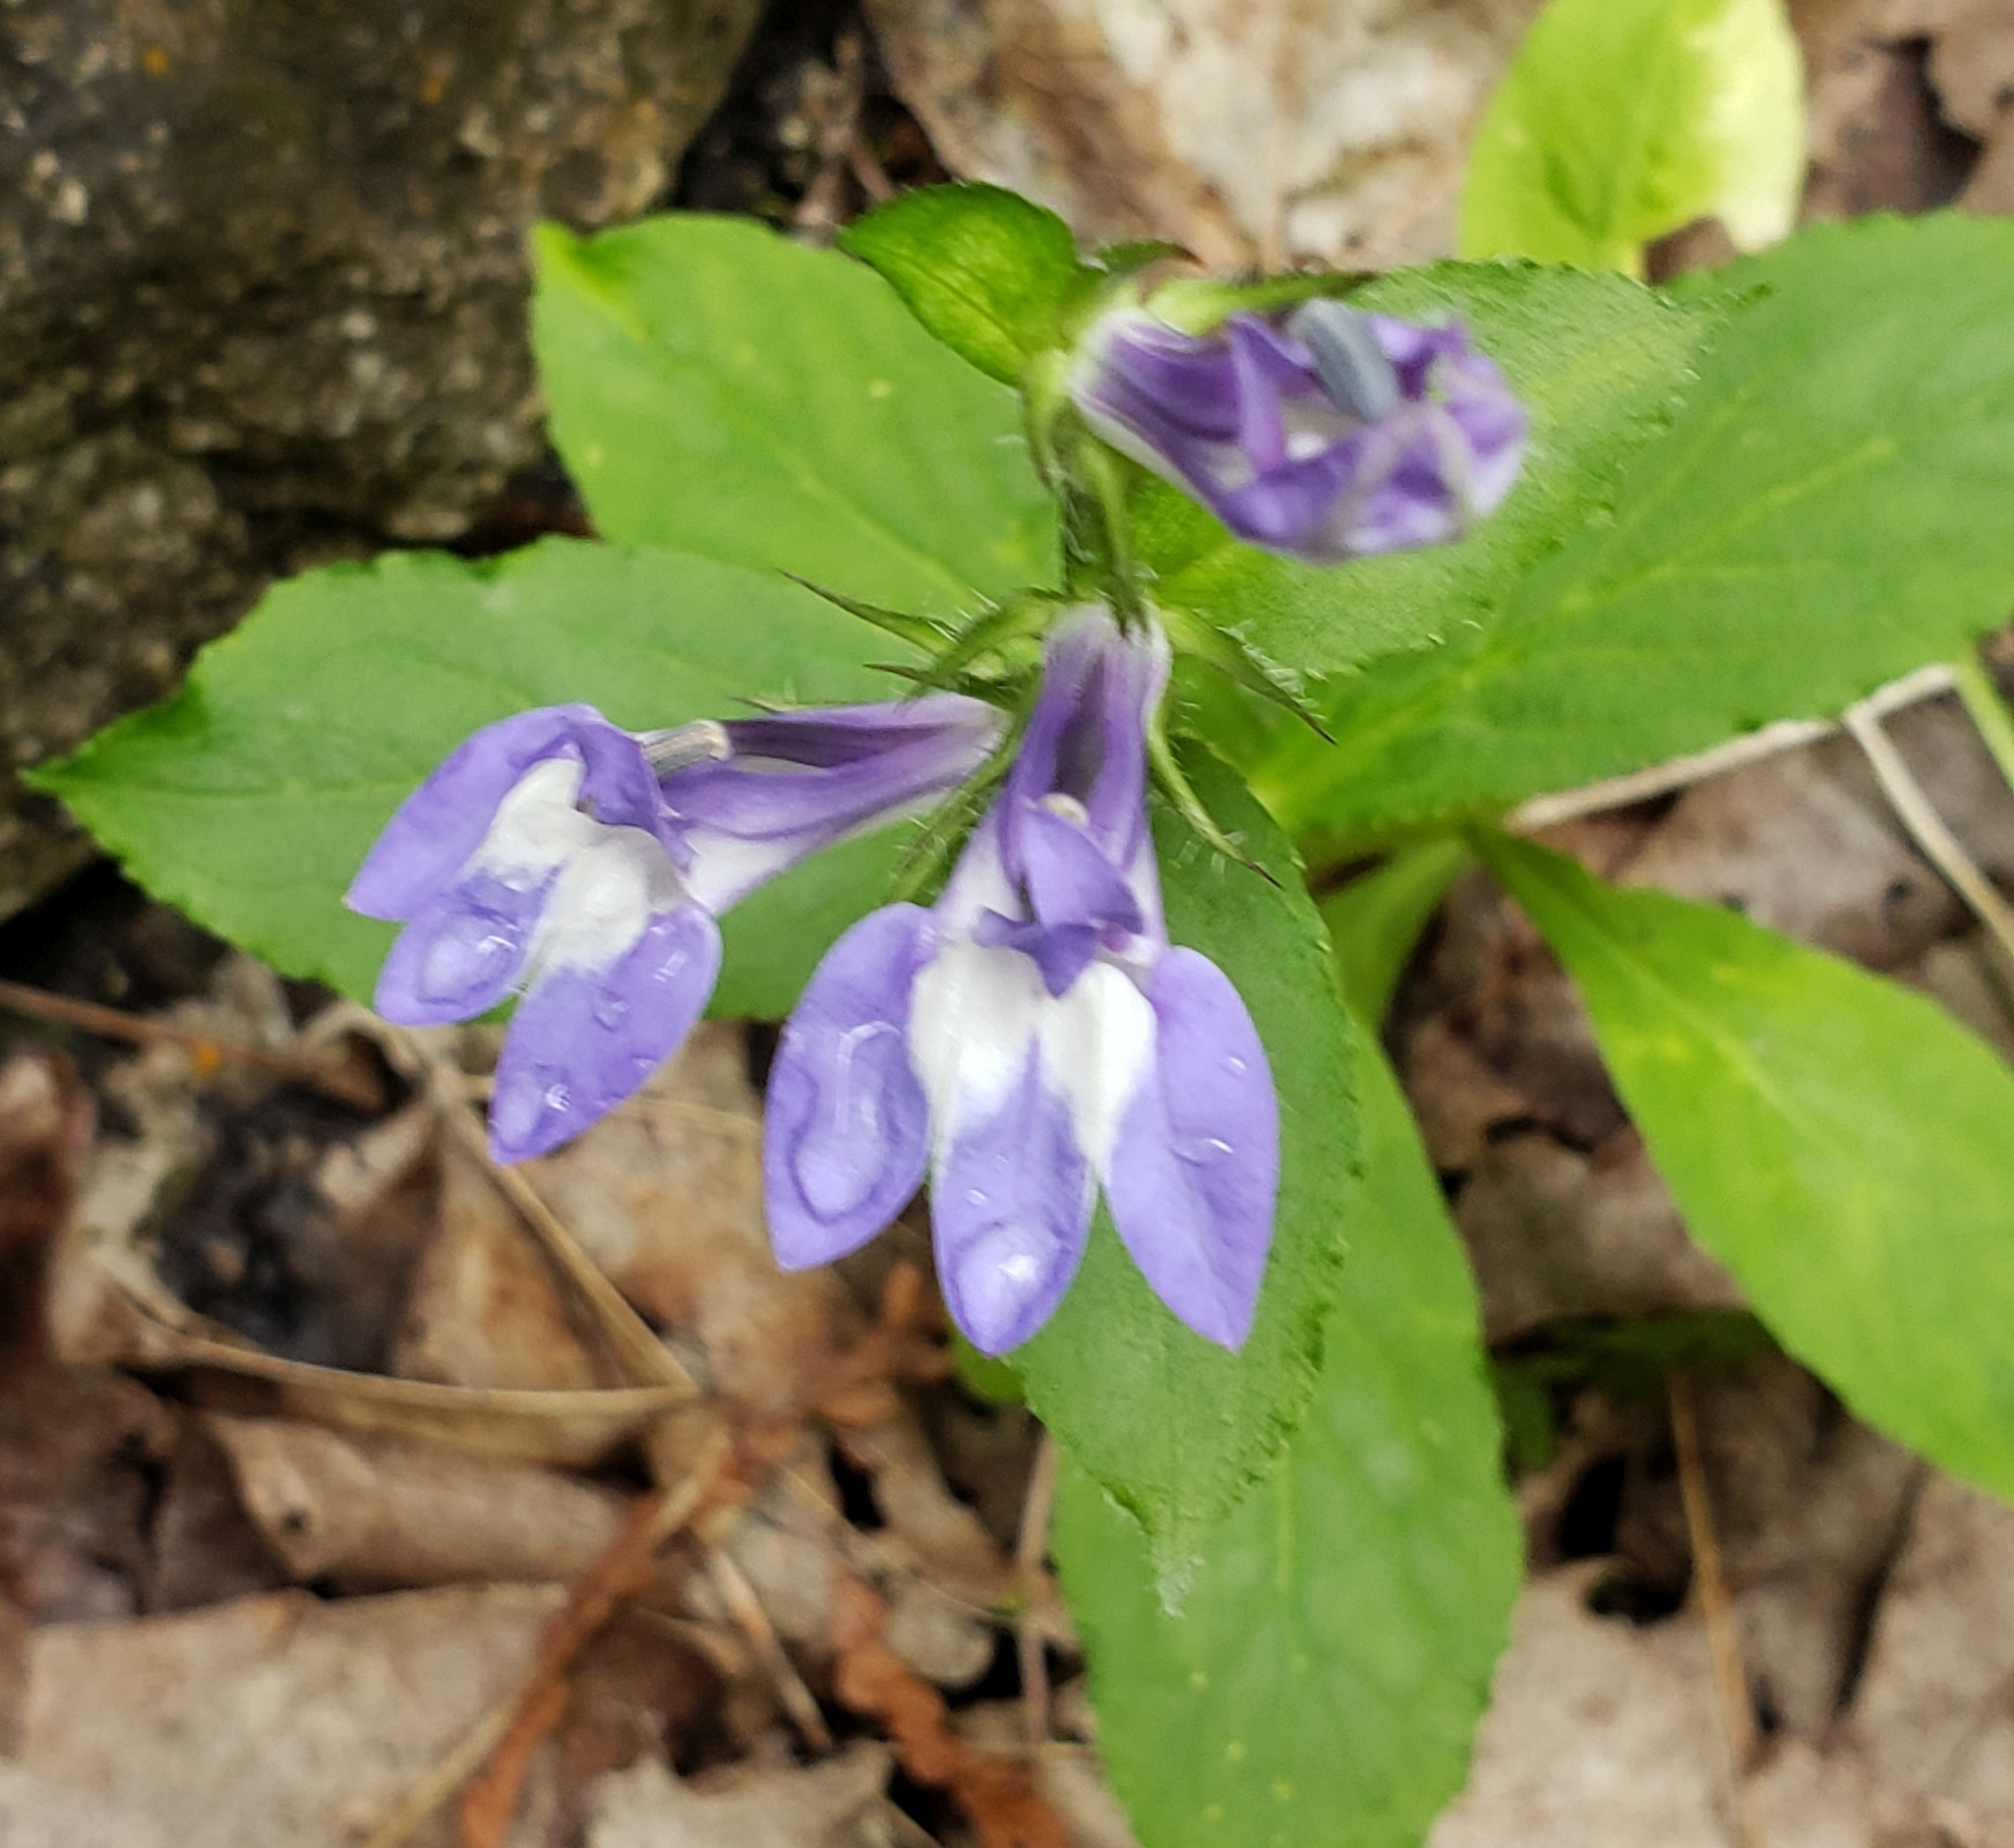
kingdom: Plantae
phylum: Tracheophyta
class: Magnoliopsida
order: Asterales
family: Campanulaceae
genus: Lobelia
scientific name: Lobelia siphilitica
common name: Great lobelia
